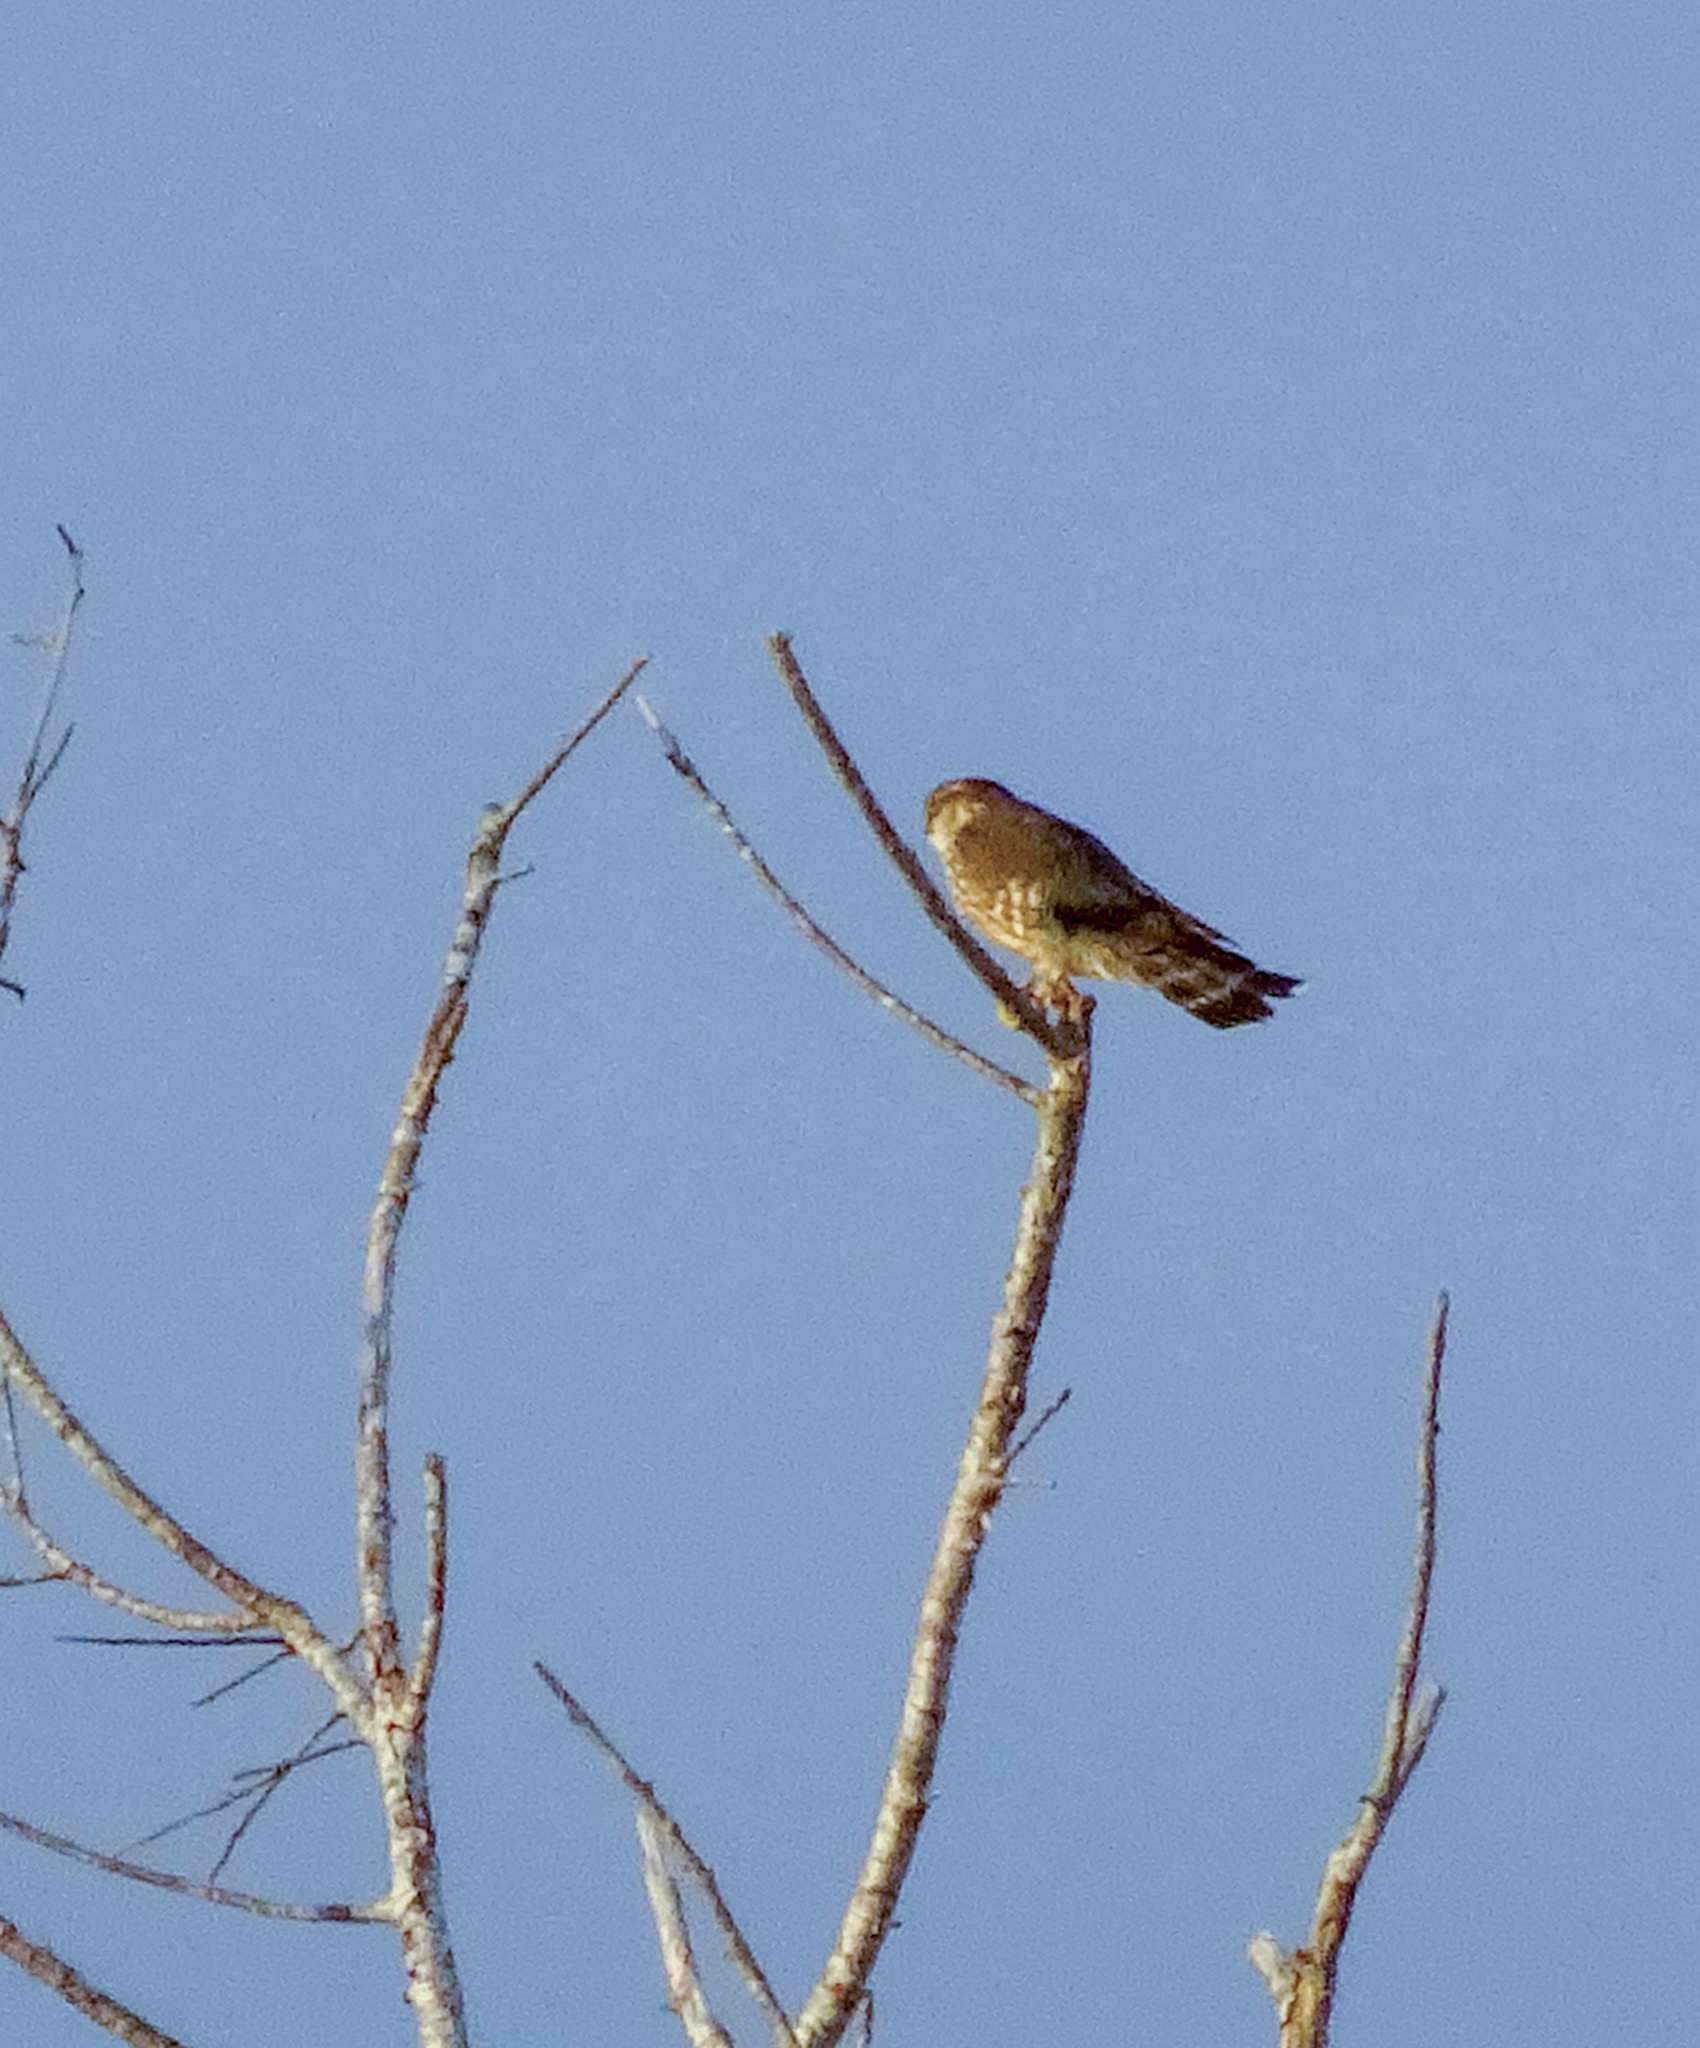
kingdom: Animalia
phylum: Chordata
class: Aves
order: Falconiformes
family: Falconidae
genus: Falco
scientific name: Falco columbarius
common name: Merlin
